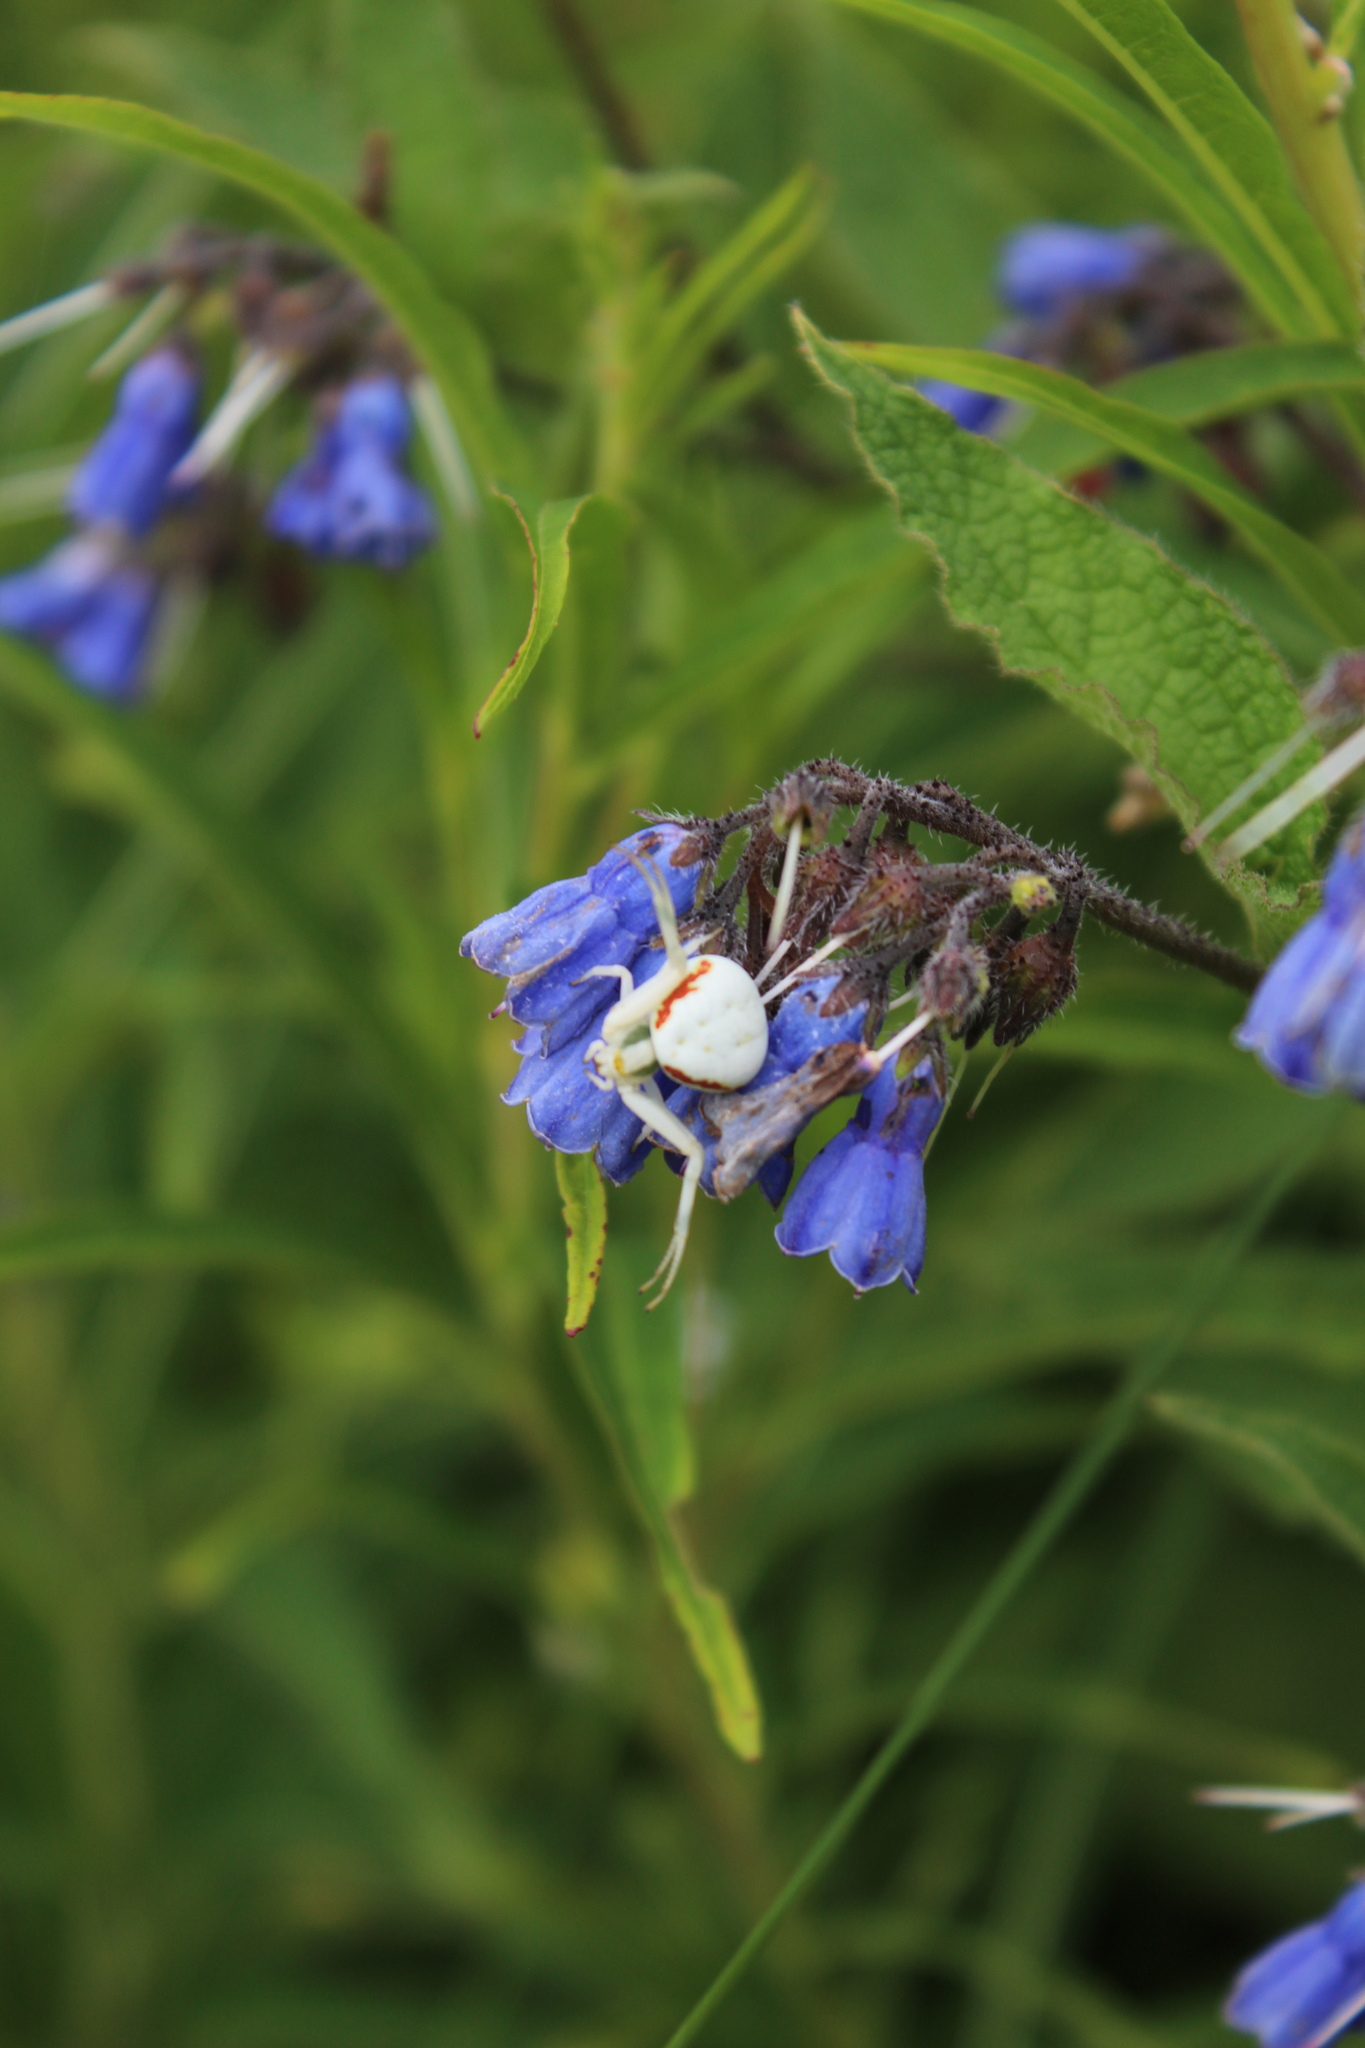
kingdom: Animalia
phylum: Arthropoda
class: Arachnida
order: Araneae
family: Thomisidae
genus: Misumena
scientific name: Misumena vatia
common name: Goldenrod crab spider
